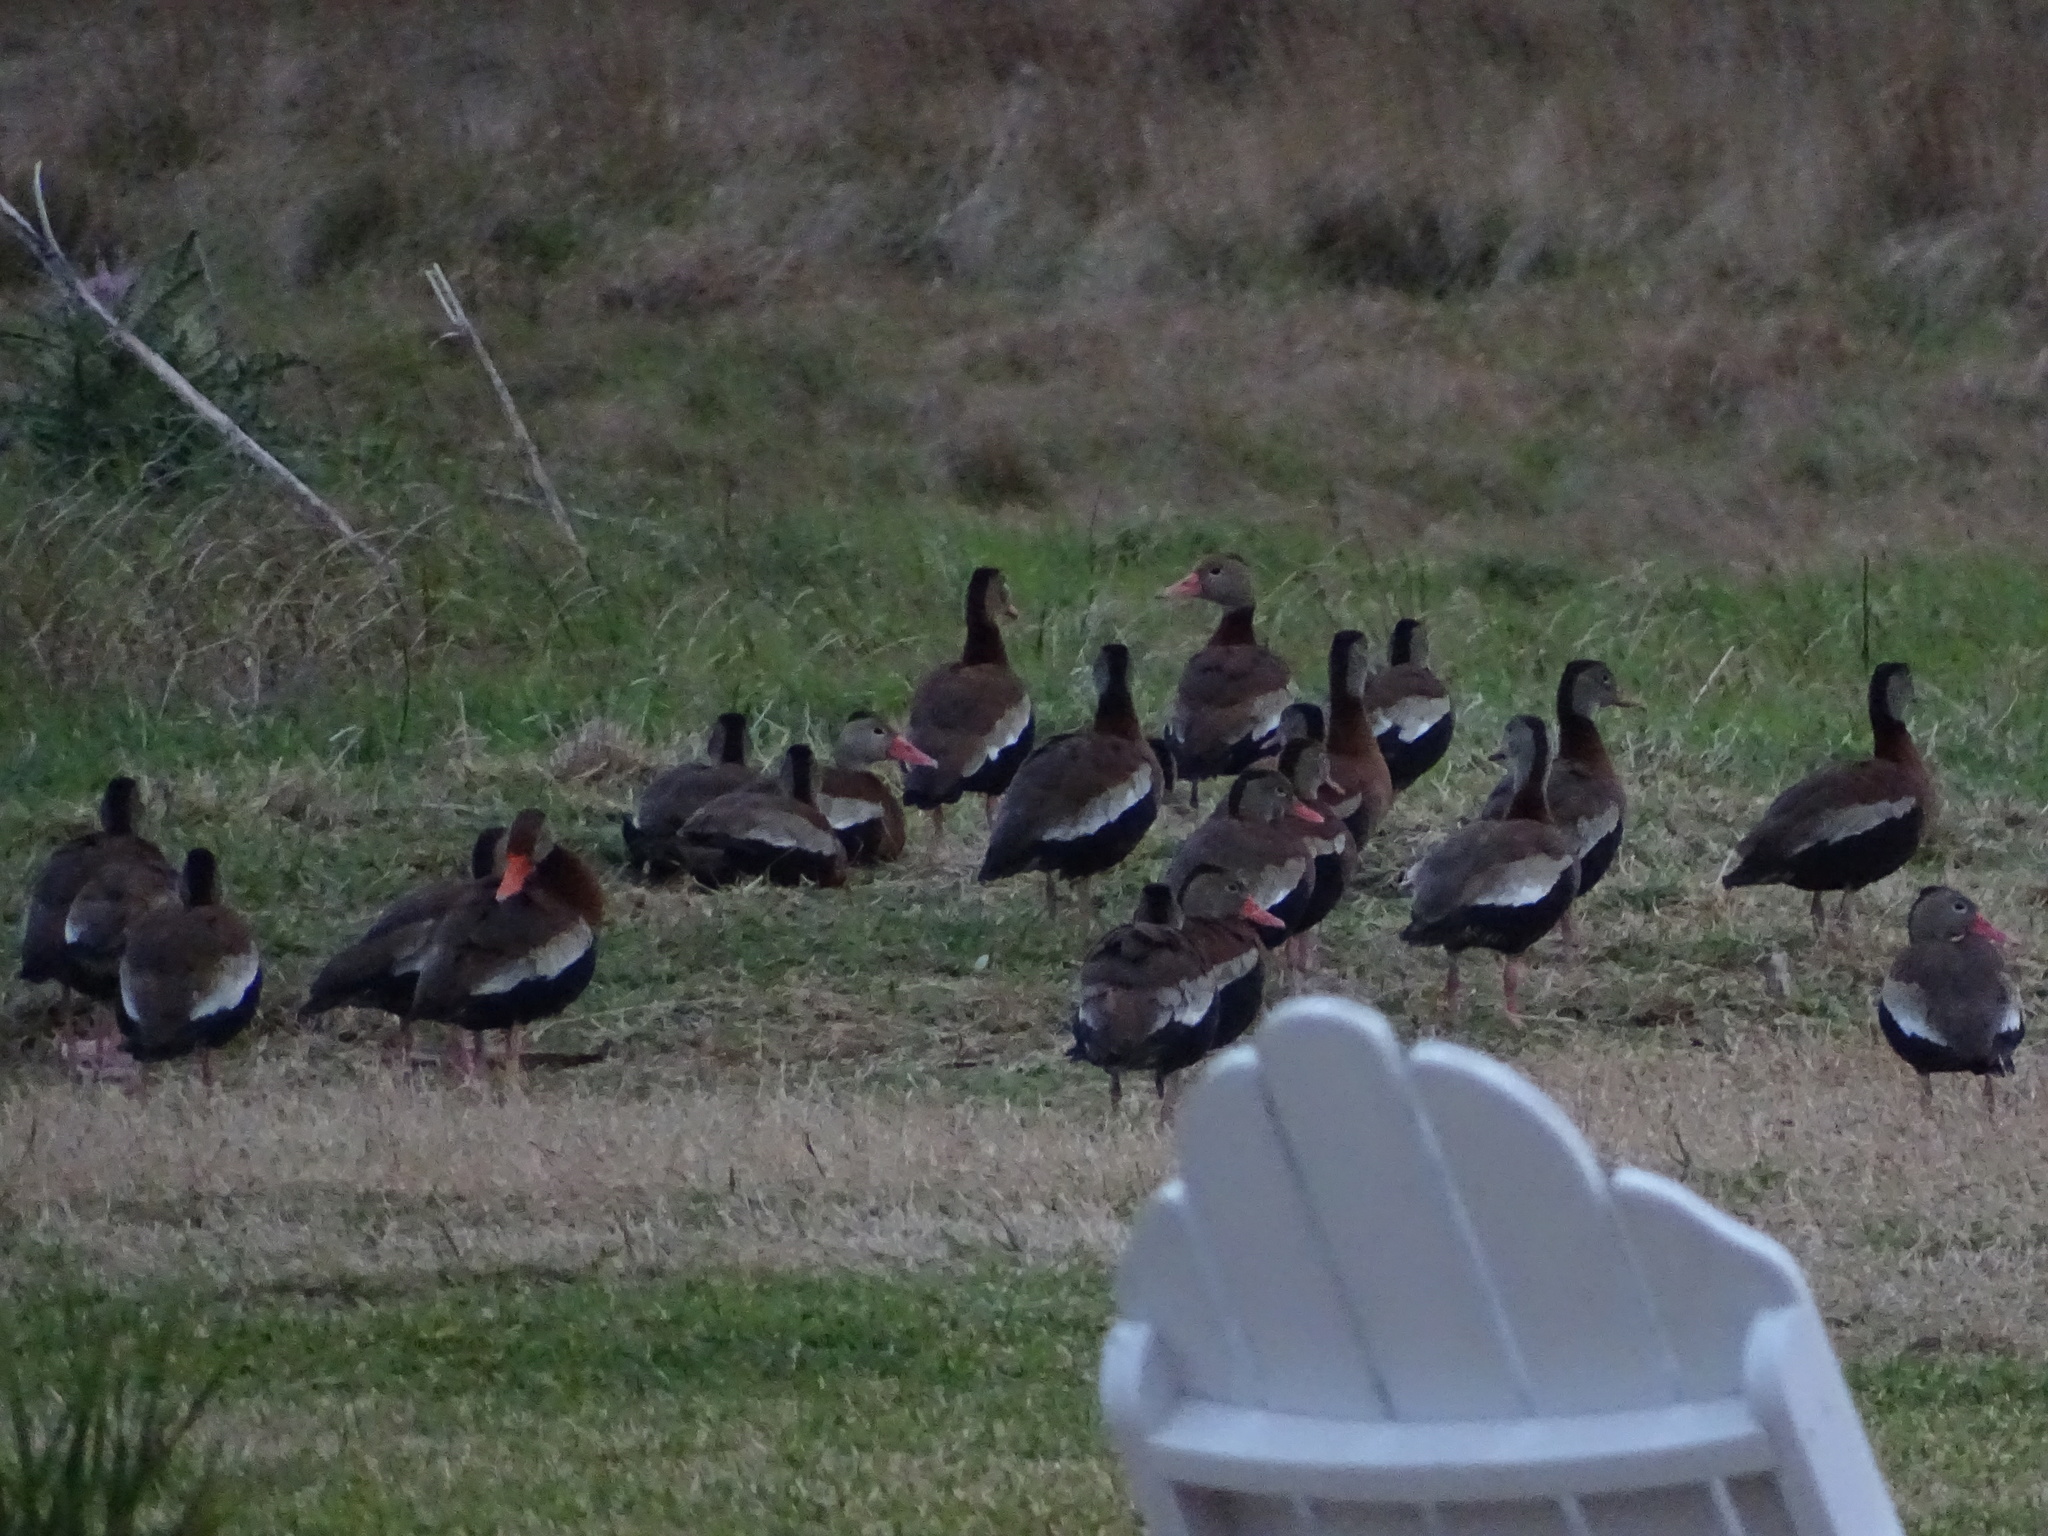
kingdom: Animalia
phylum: Chordata
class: Aves
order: Anseriformes
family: Anatidae
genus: Dendrocygna
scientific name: Dendrocygna autumnalis
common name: Black-bellied whistling duck
